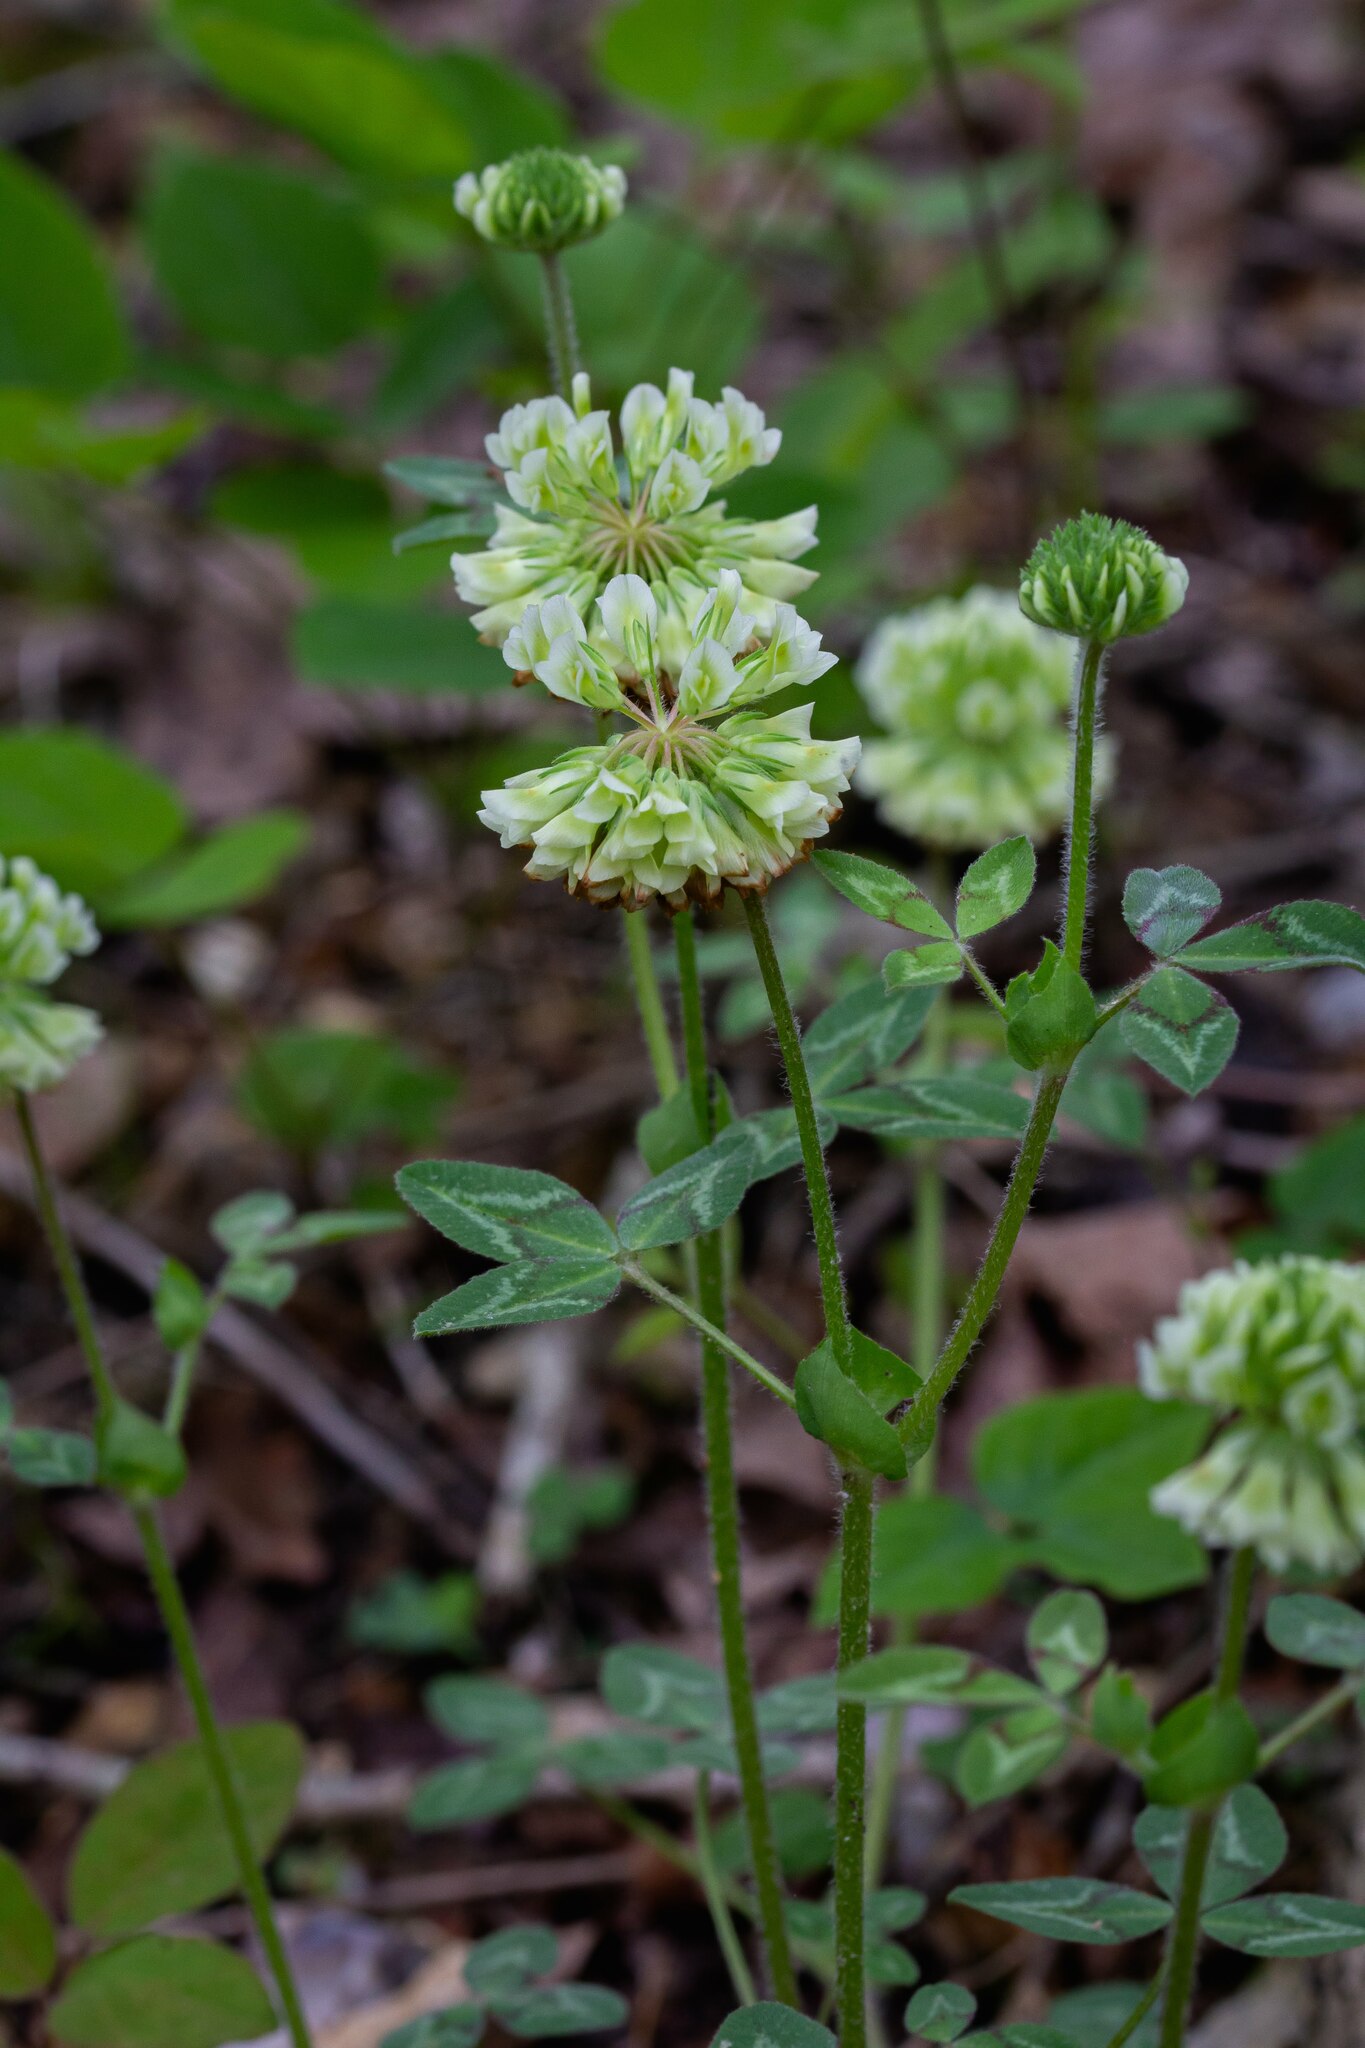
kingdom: Plantae
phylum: Tracheophyta
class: Magnoliopsida
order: Fabales
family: Fabaceae
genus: Trifolium
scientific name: Trifolium reflexum
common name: Buffalo clover
